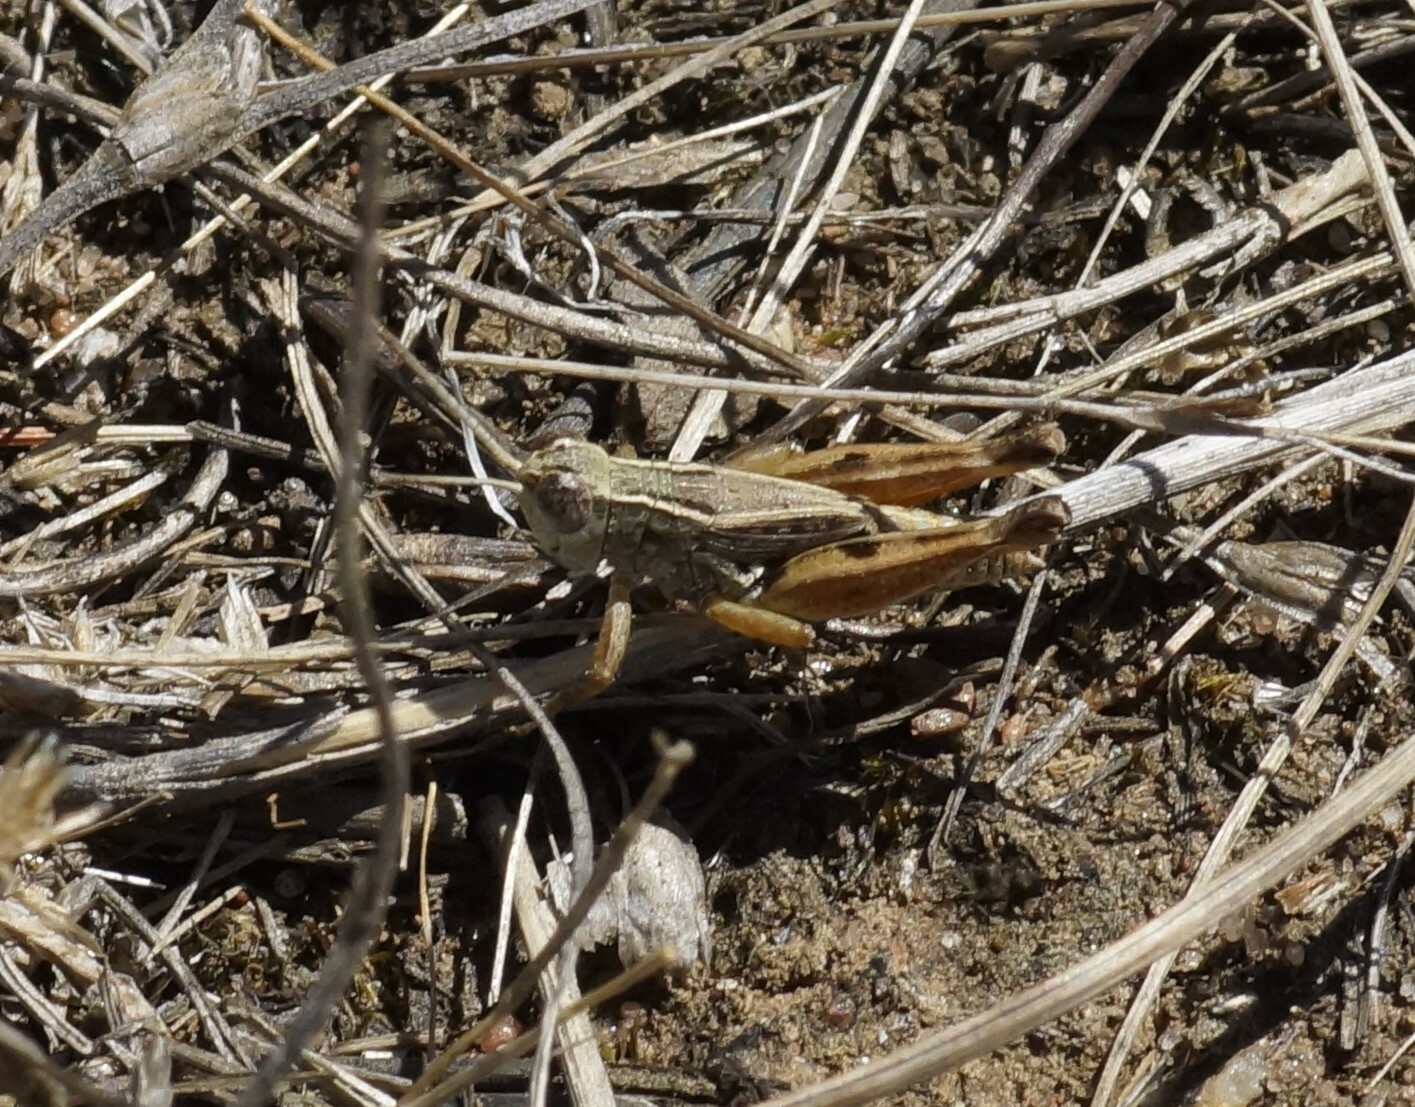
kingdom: Animalia
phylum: Arthropoda
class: Insecta
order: Orthoptera
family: Acrididae
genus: Phaulacridium
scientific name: Phaulacridium vittatum
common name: Wingless grasshopper
